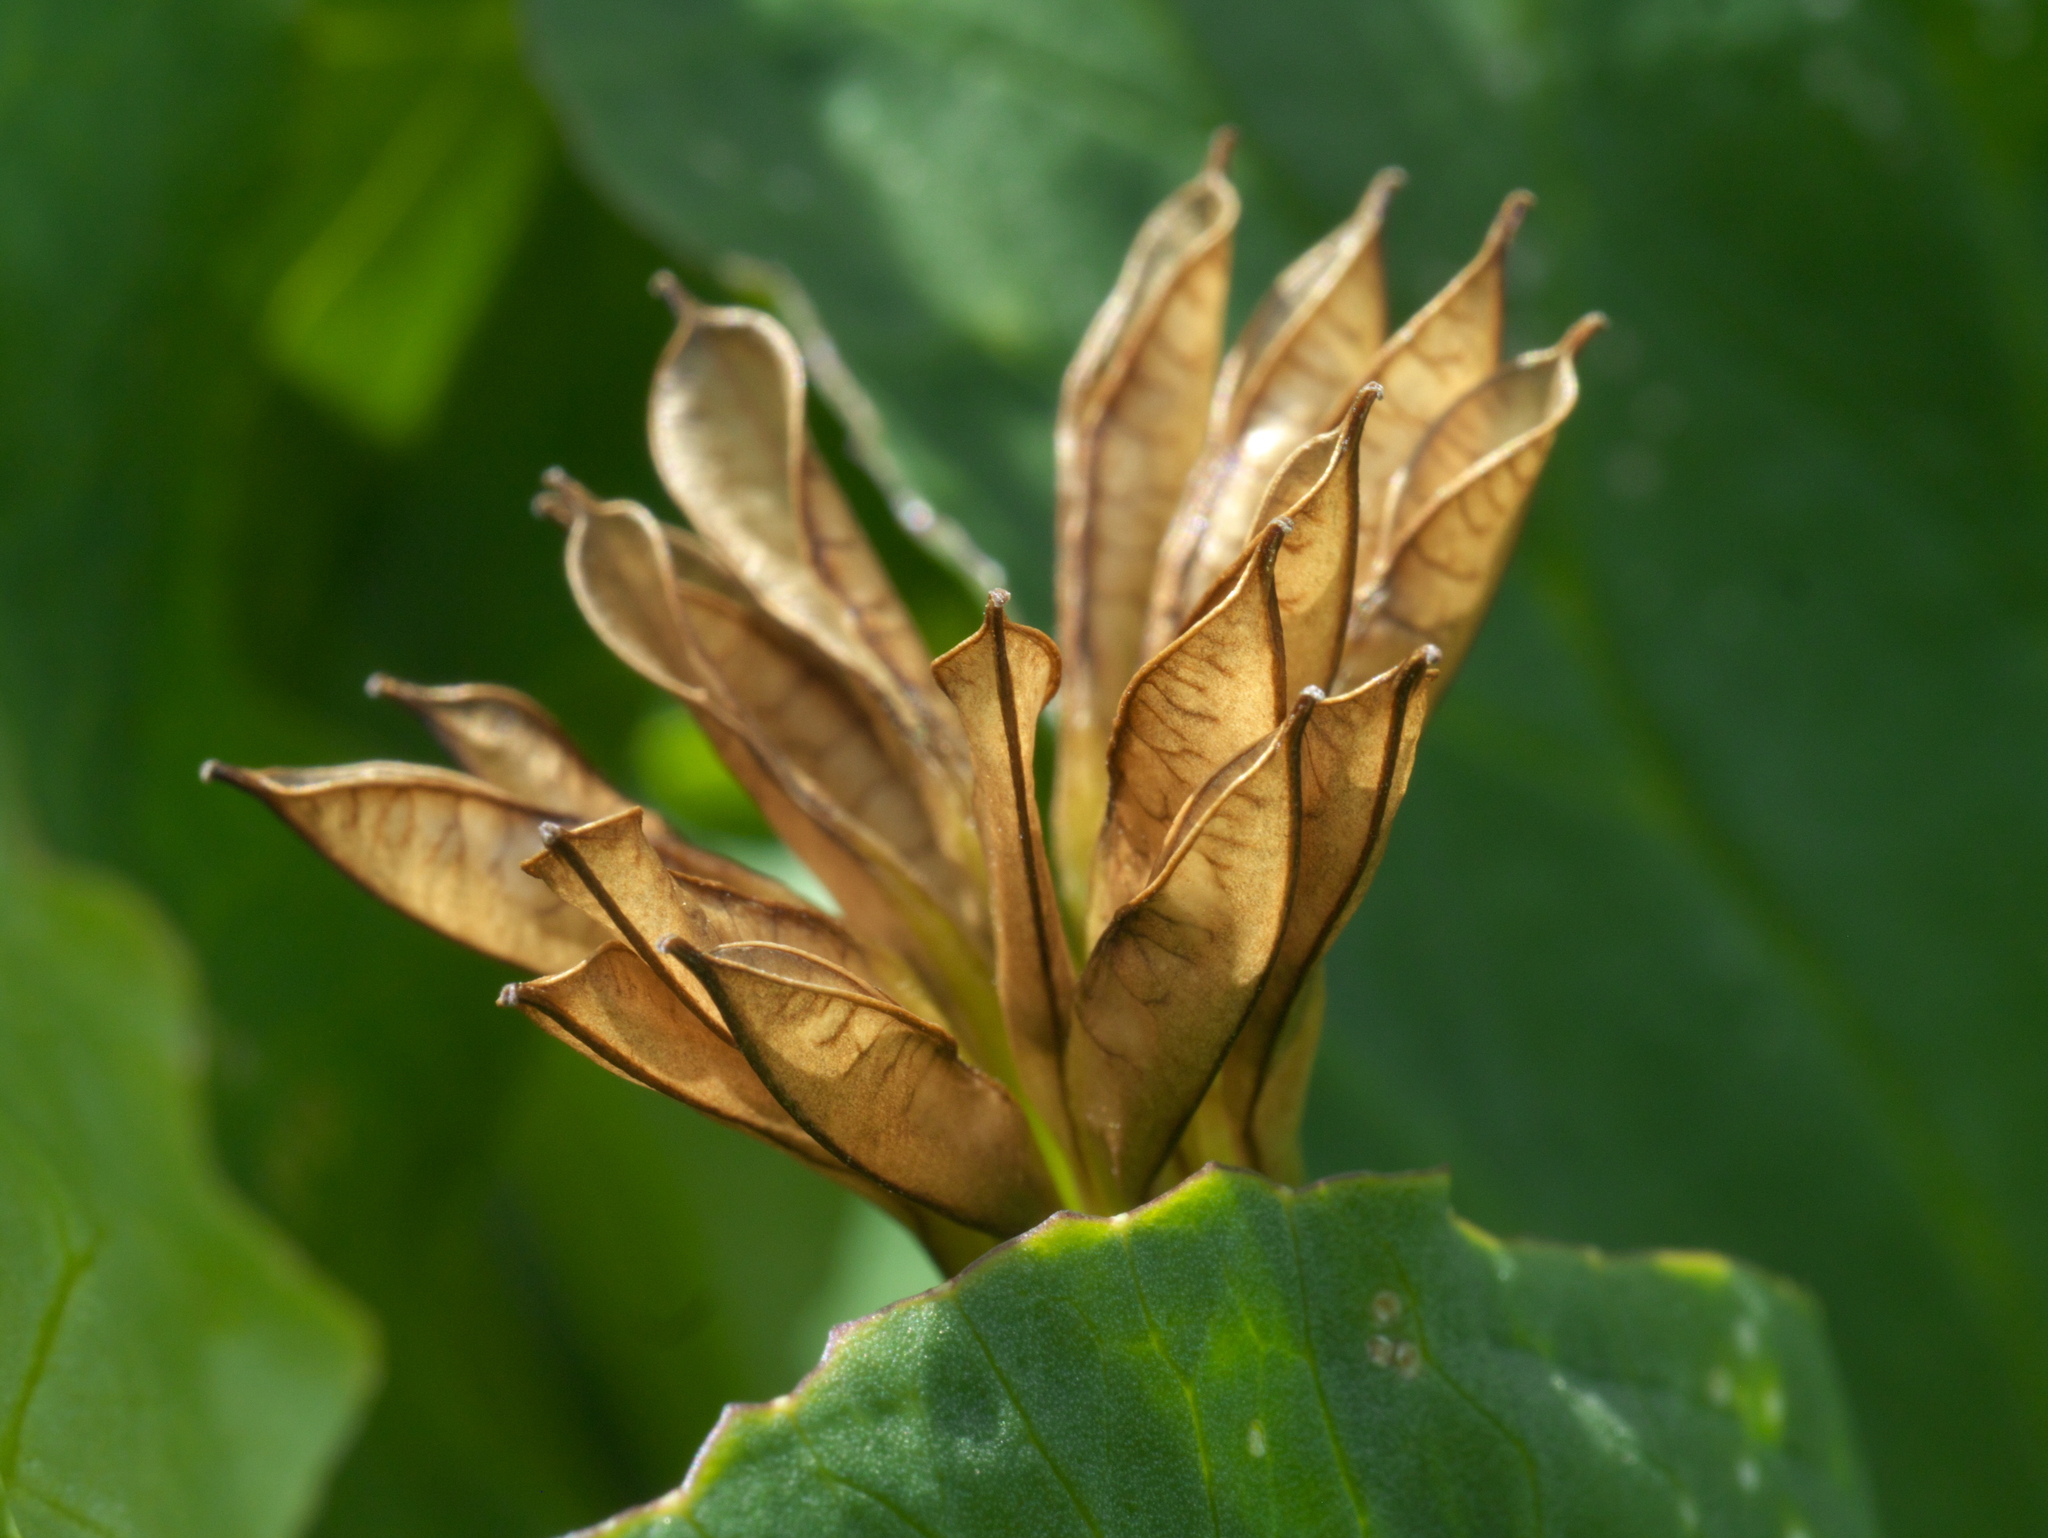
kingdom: Plantae
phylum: Tracheophyta
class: Magnoliopsida
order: Ranunculales
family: Ranunculaceae
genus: Caltha
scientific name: Caltha leptosepala
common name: Elkslip
